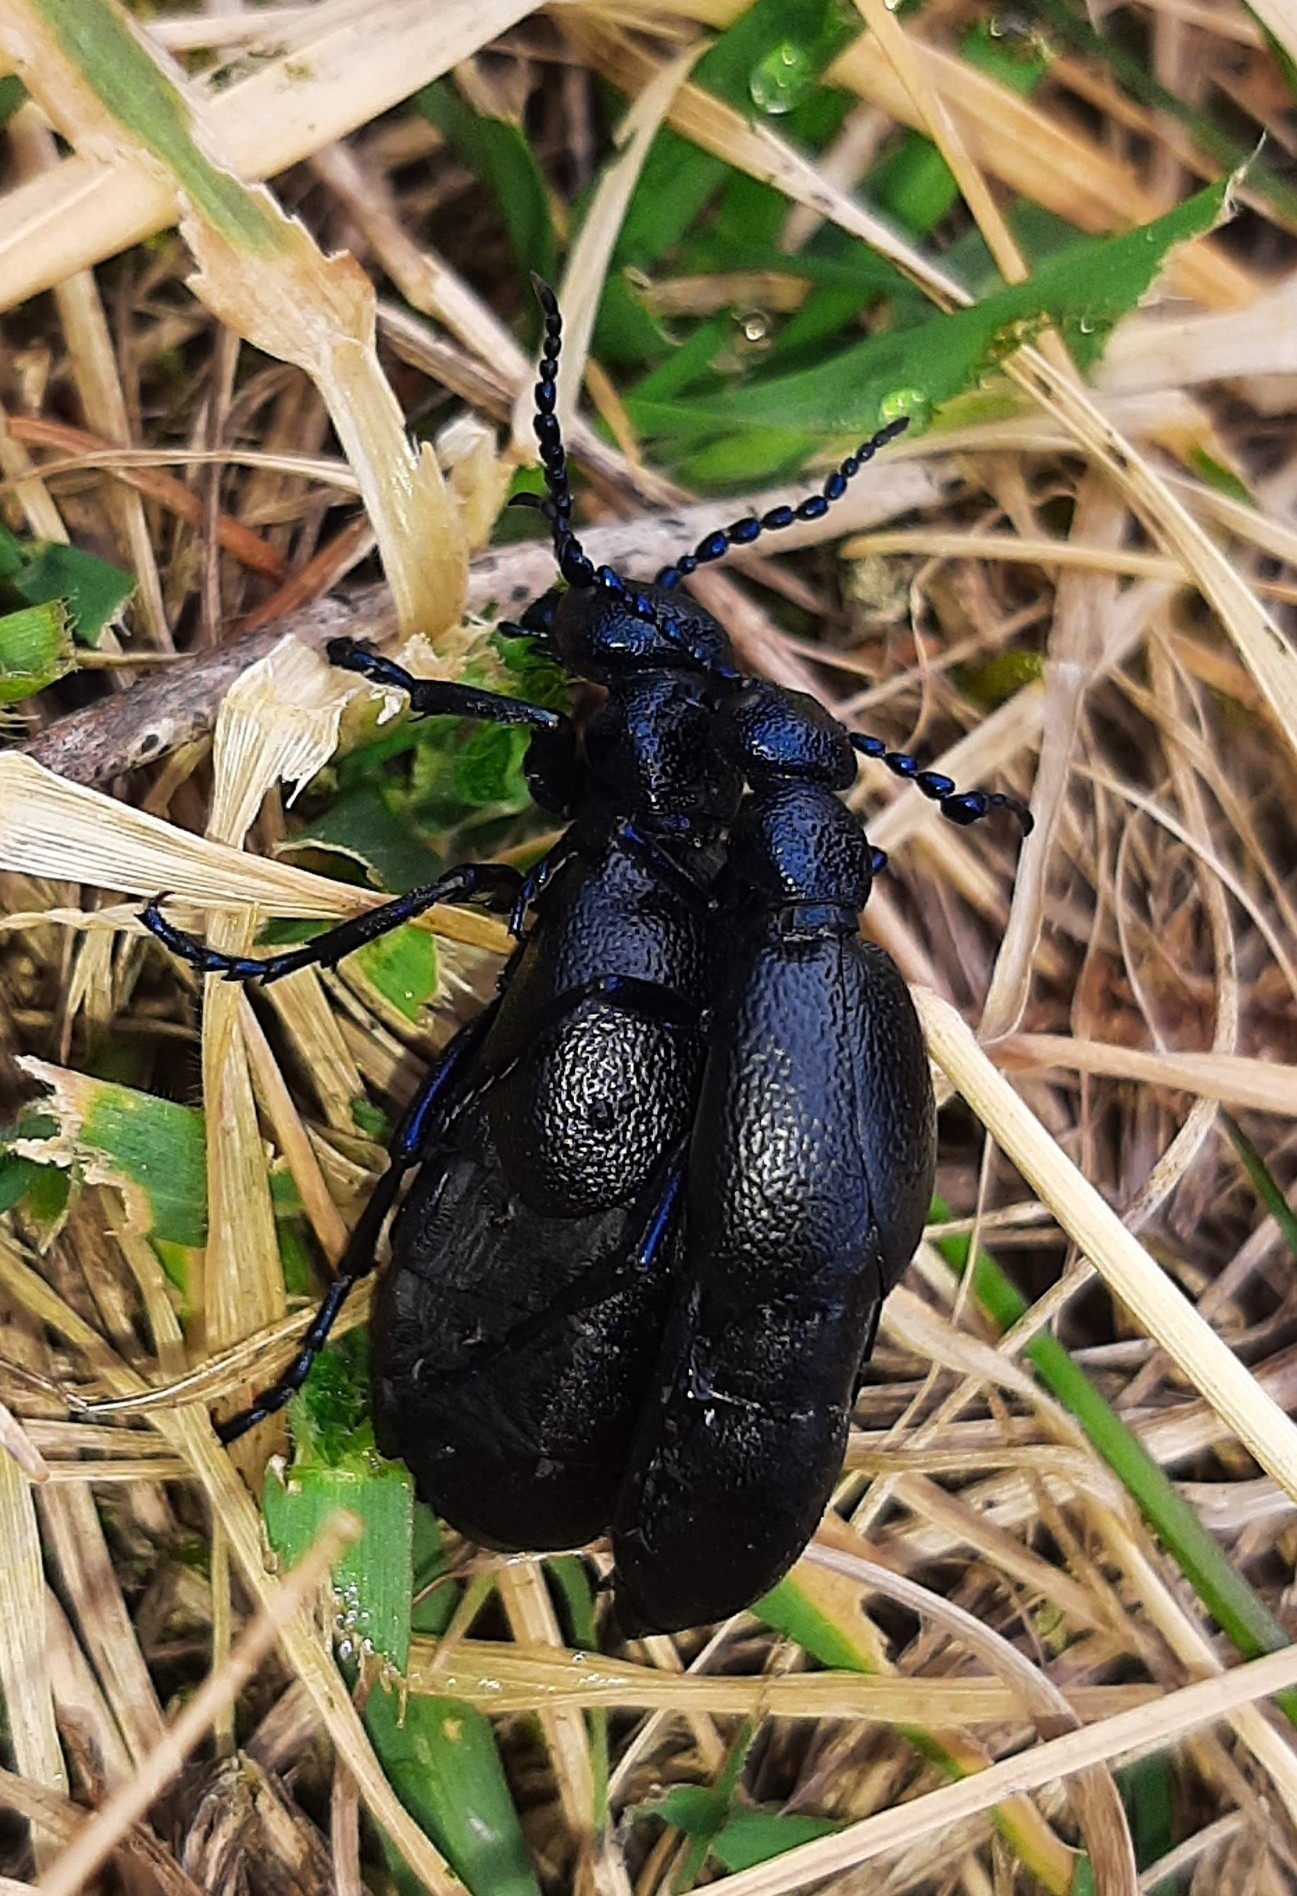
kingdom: Animalia
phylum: Arthropoda
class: Insecta
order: Coleoptera
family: Meloidae
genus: Meloe
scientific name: Meloe proscarabaeus
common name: Black oil-beetle
